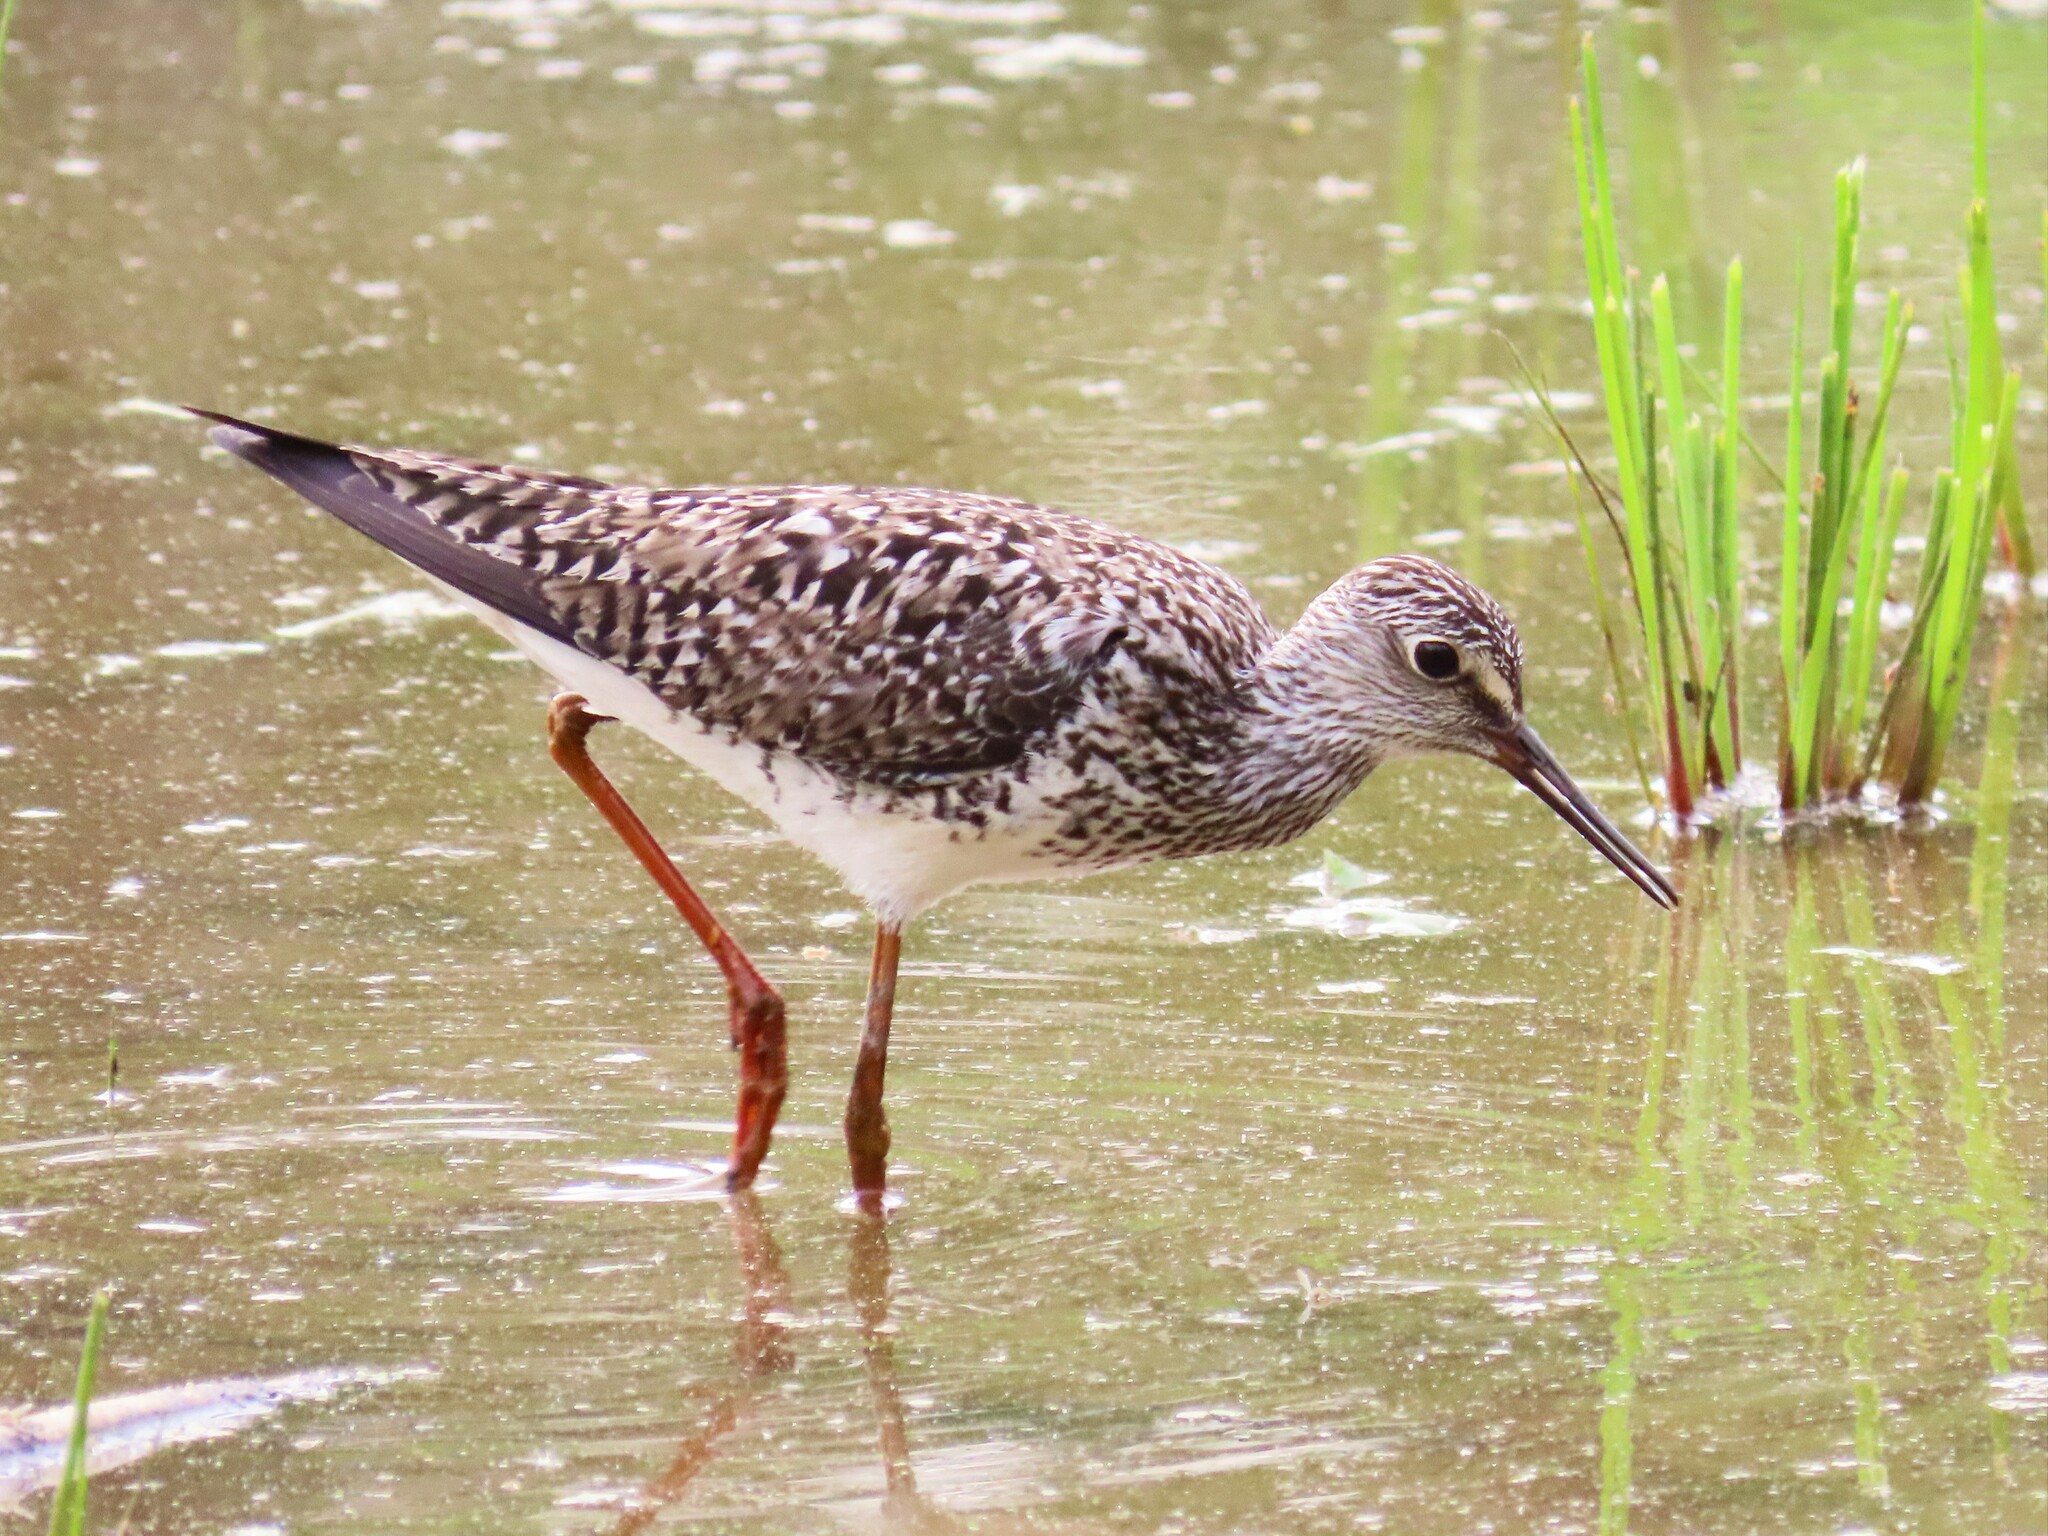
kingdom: Animalia
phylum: Chordata
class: Aves
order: Charadriiformes
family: Scolopacidae
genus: Tringa
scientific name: Tringa flavipes
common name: Lesser yellowlegs
